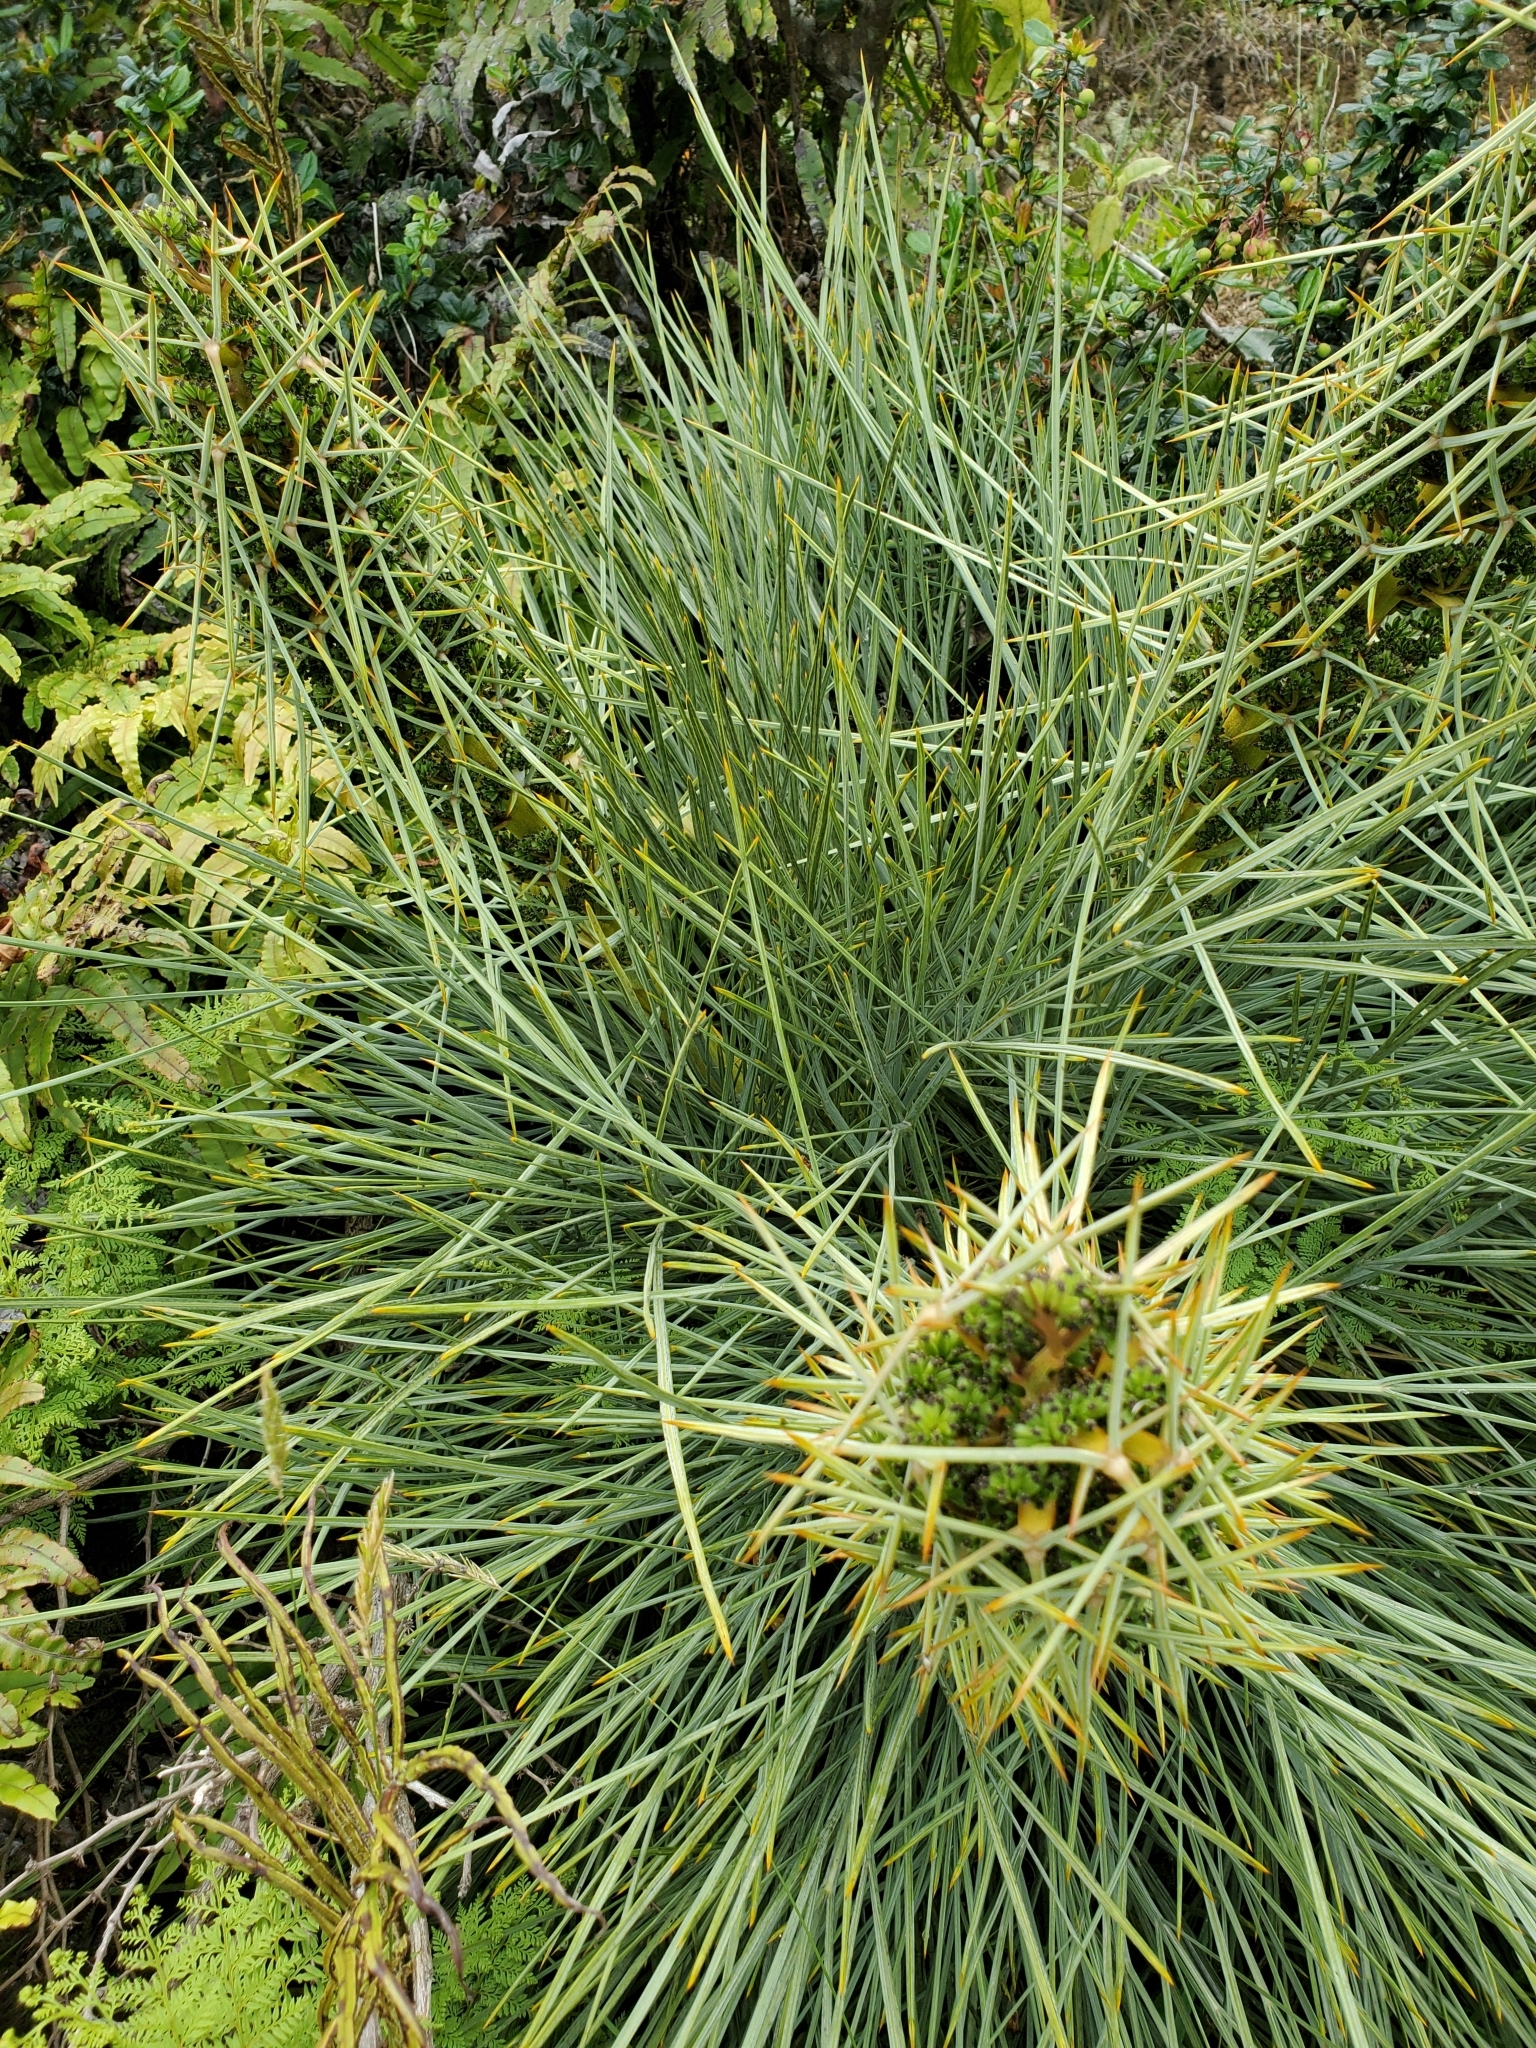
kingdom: Plantae
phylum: Tracheophyta
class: Magnoliopsida
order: Apiales
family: Apiaceae
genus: Aciphylla
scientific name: Aciphylla squarrosa
